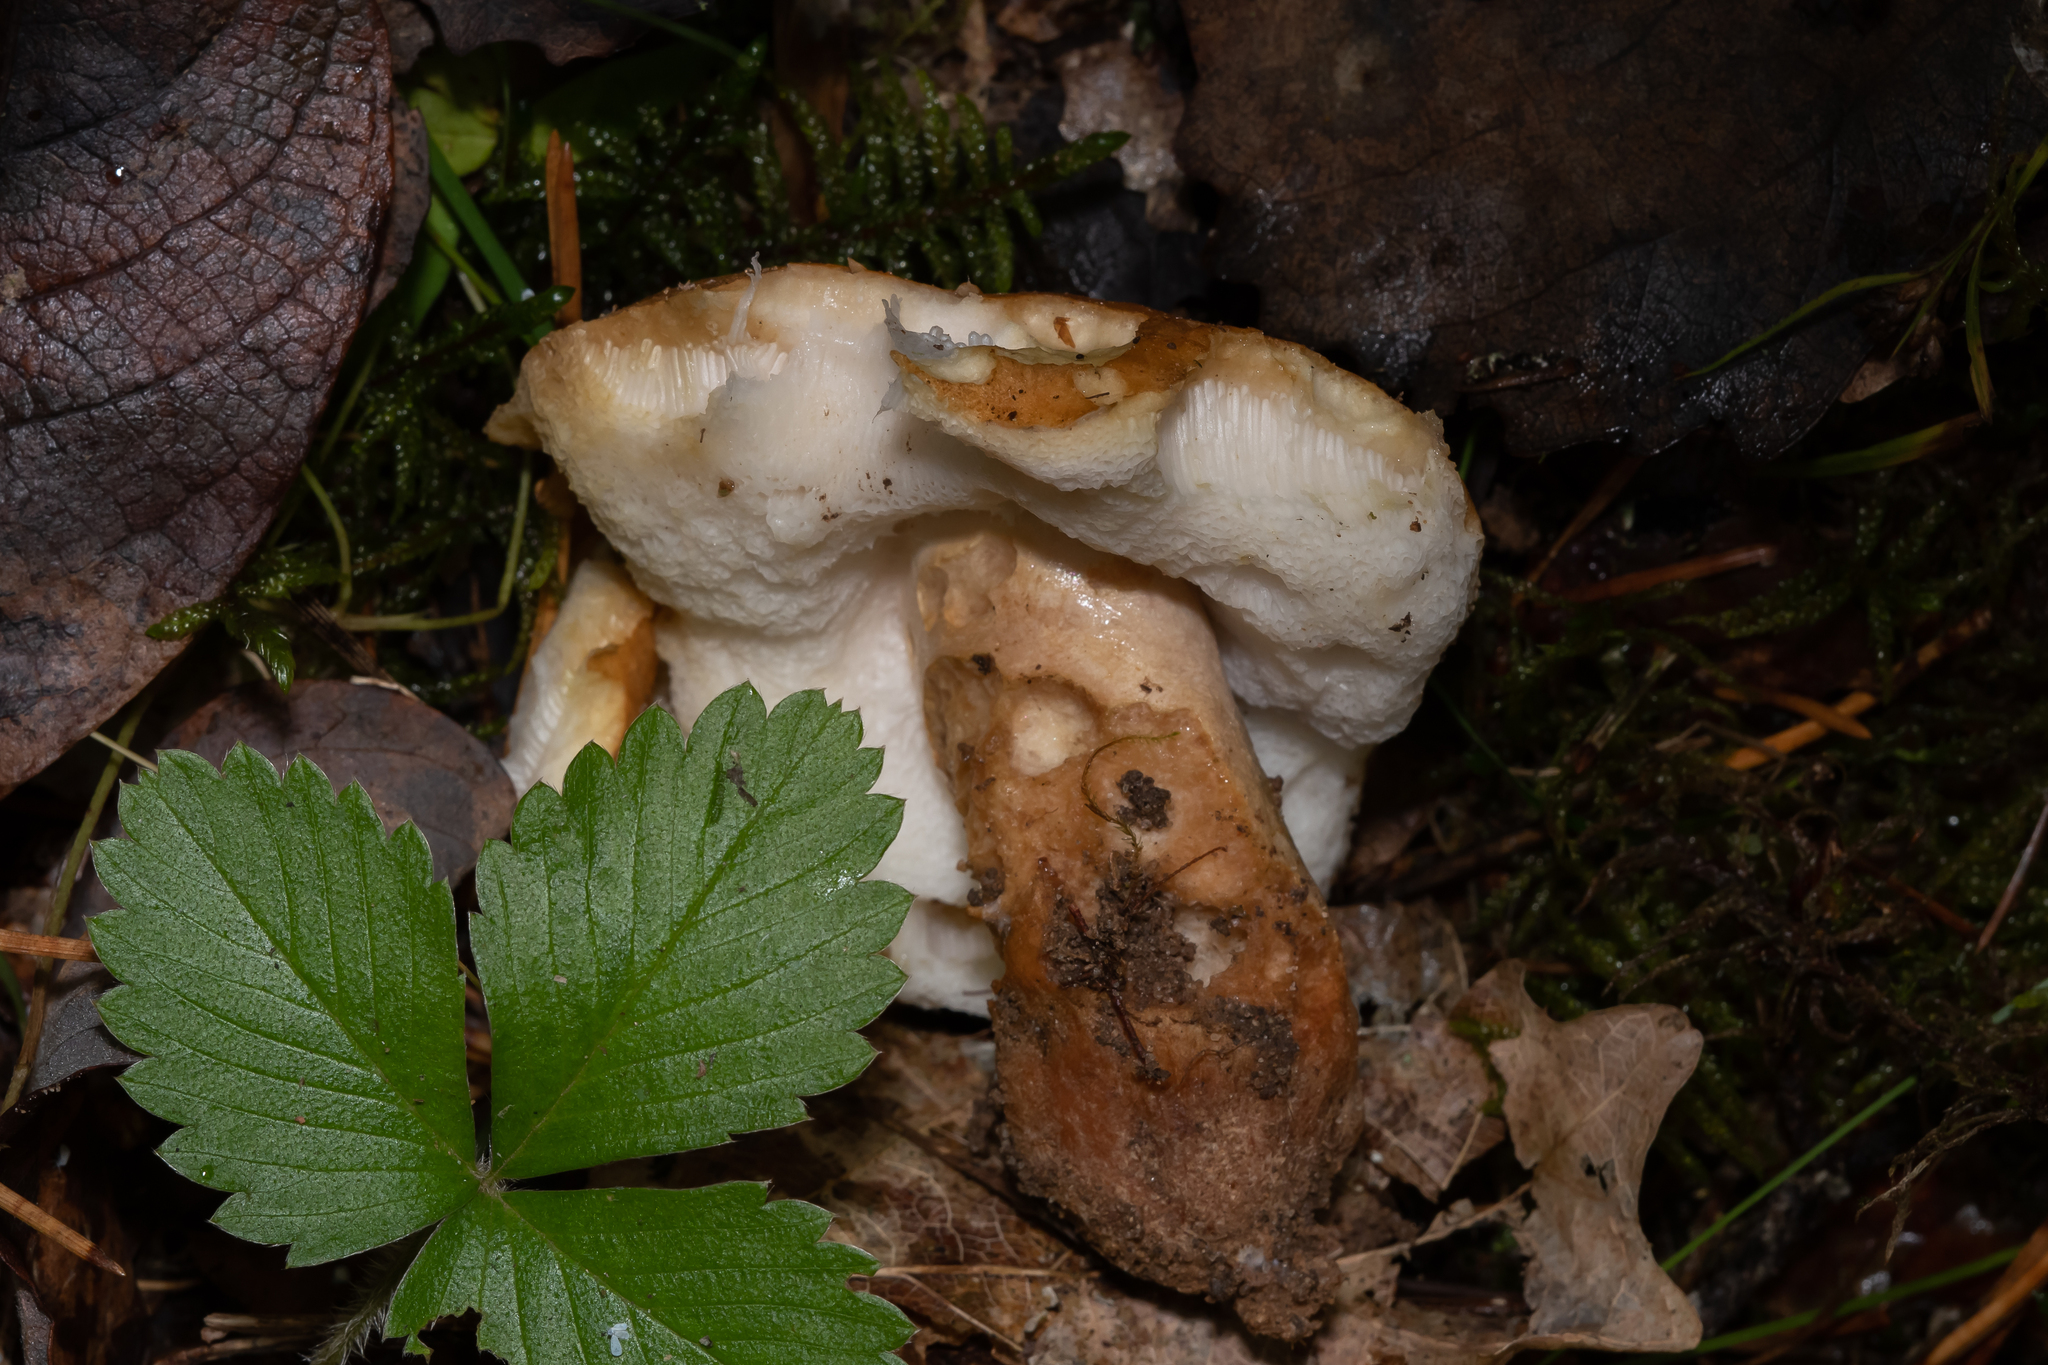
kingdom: Fungi
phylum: Basidiomycota
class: Agaricomycetes
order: Boletales
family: Gyroporaceae
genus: Gyroporus
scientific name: Gyroporus castaneus
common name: Chestnut bolete
